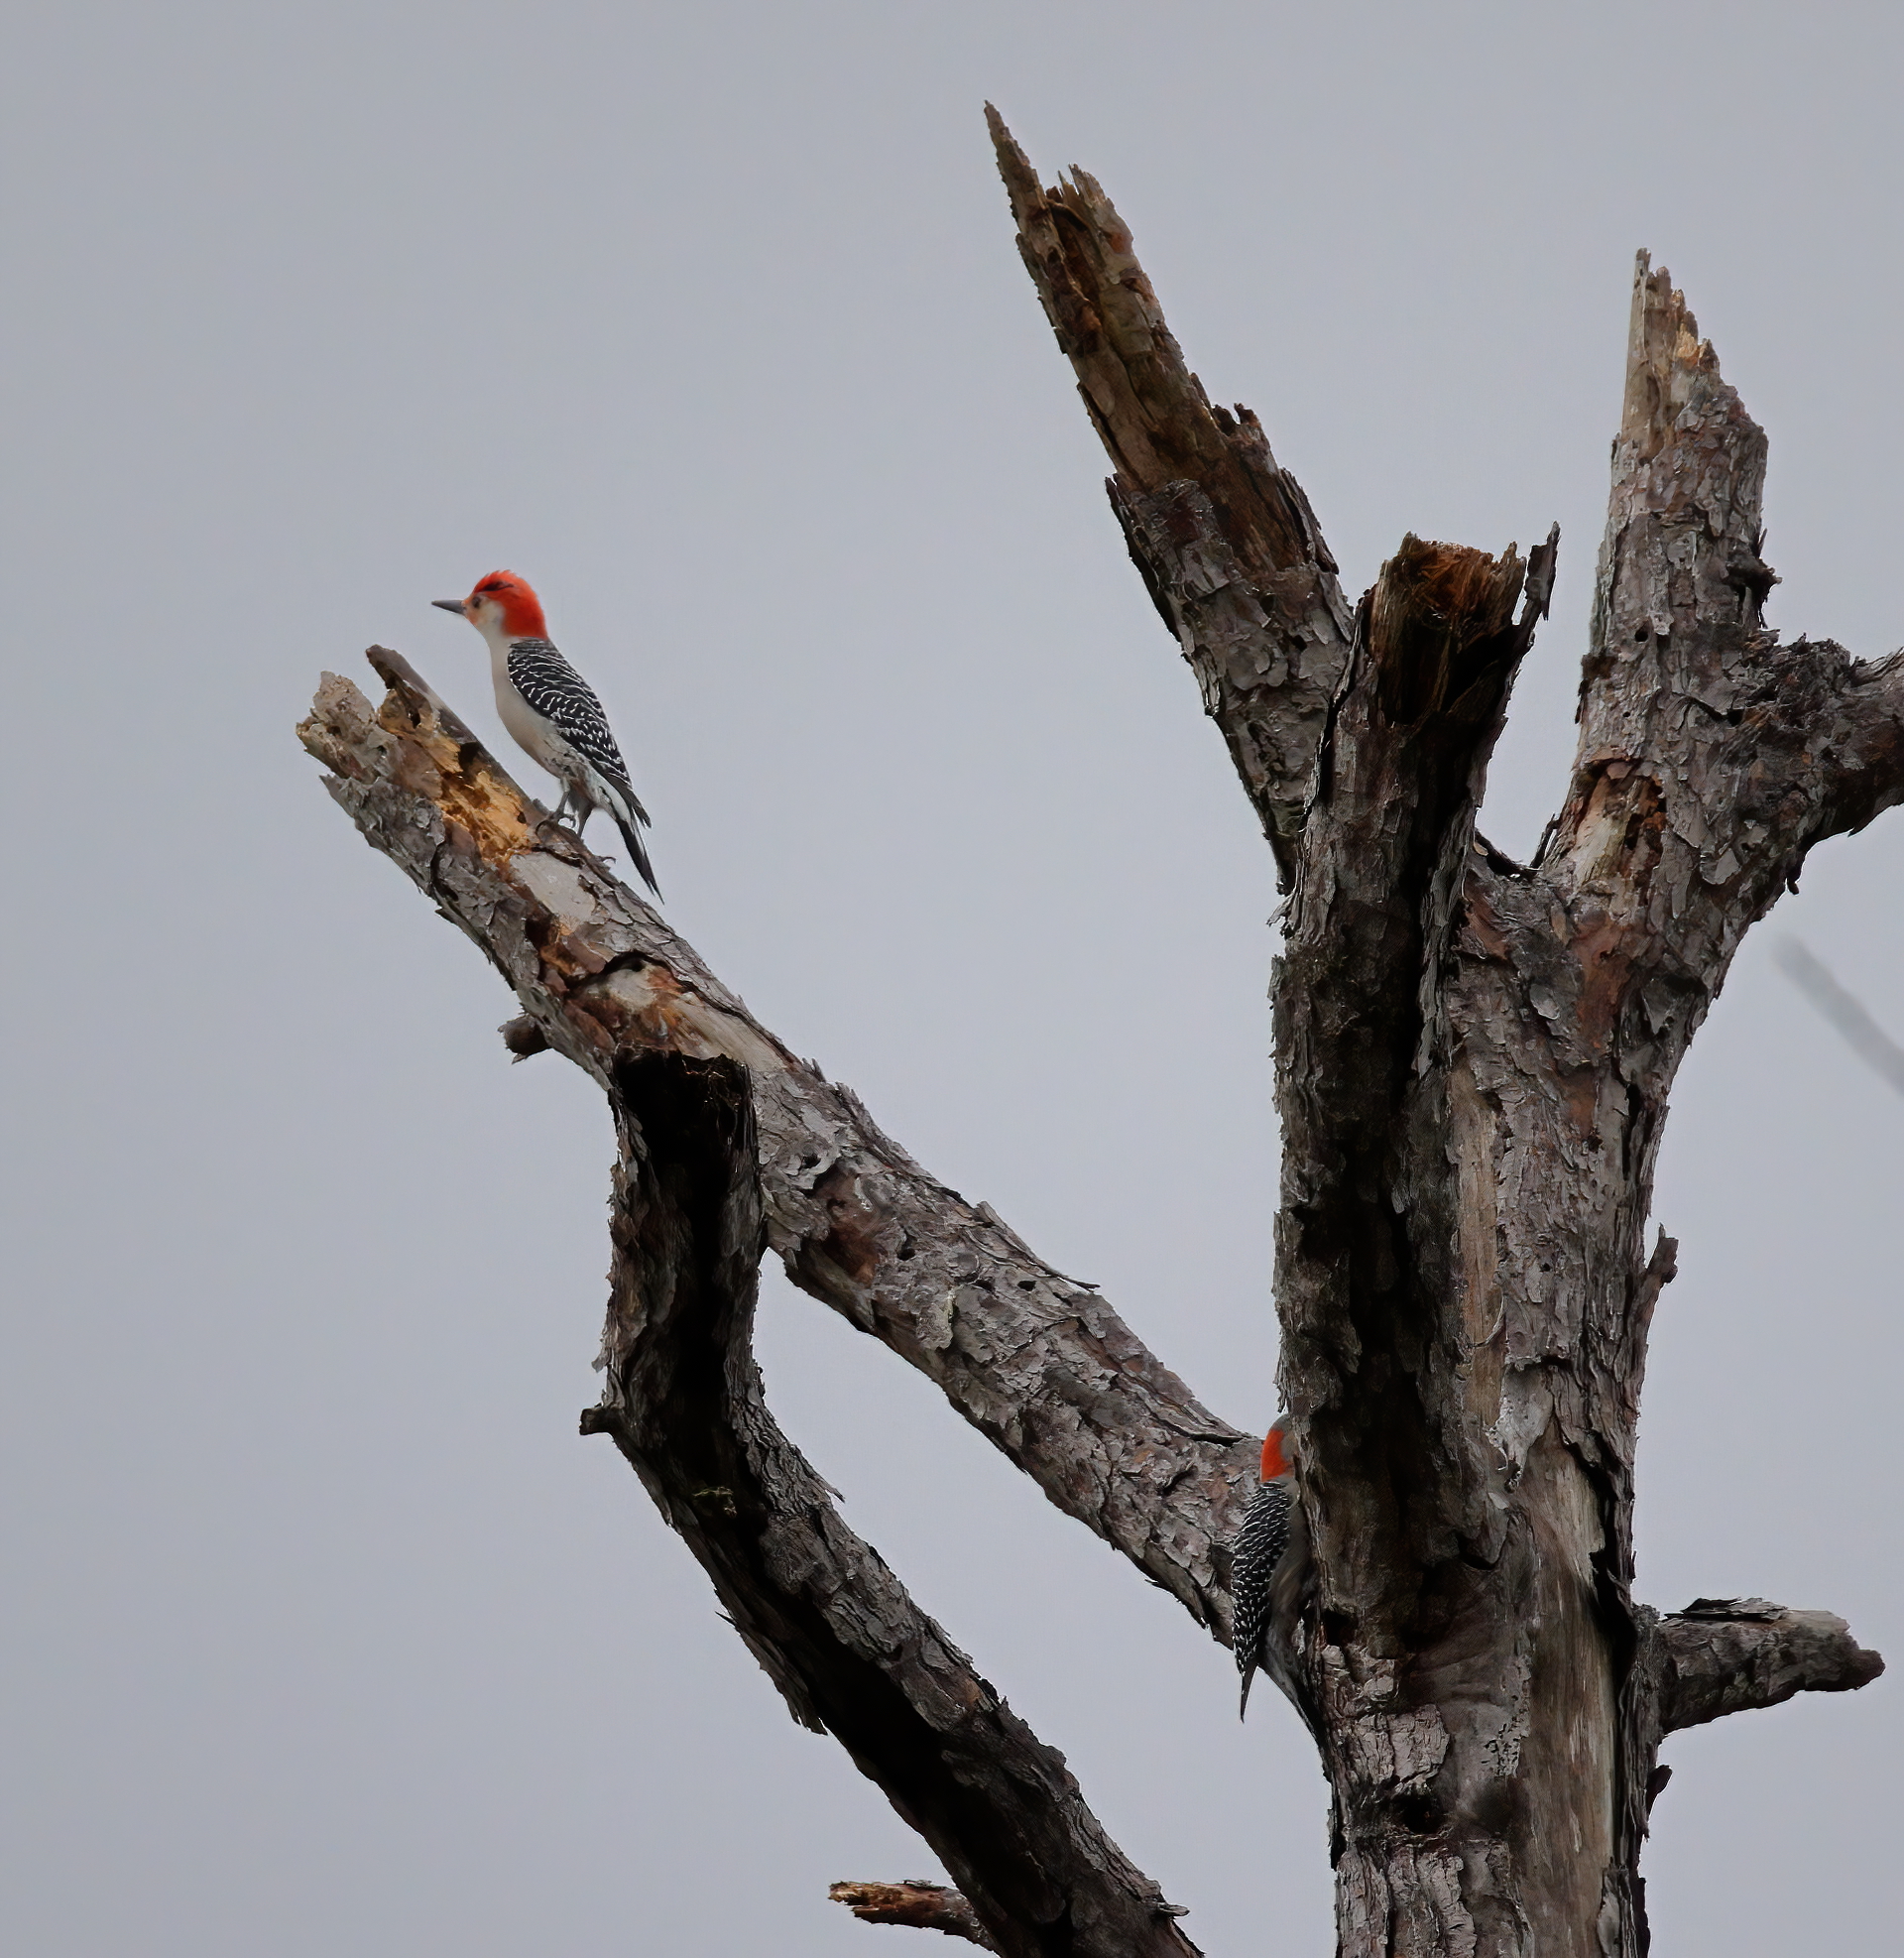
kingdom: Animalia
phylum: Chordata
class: Aves
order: Piciformes
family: Picidae
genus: Melanerpes
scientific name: Melanerpes carolinus
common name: Red-bellied woodpecker
